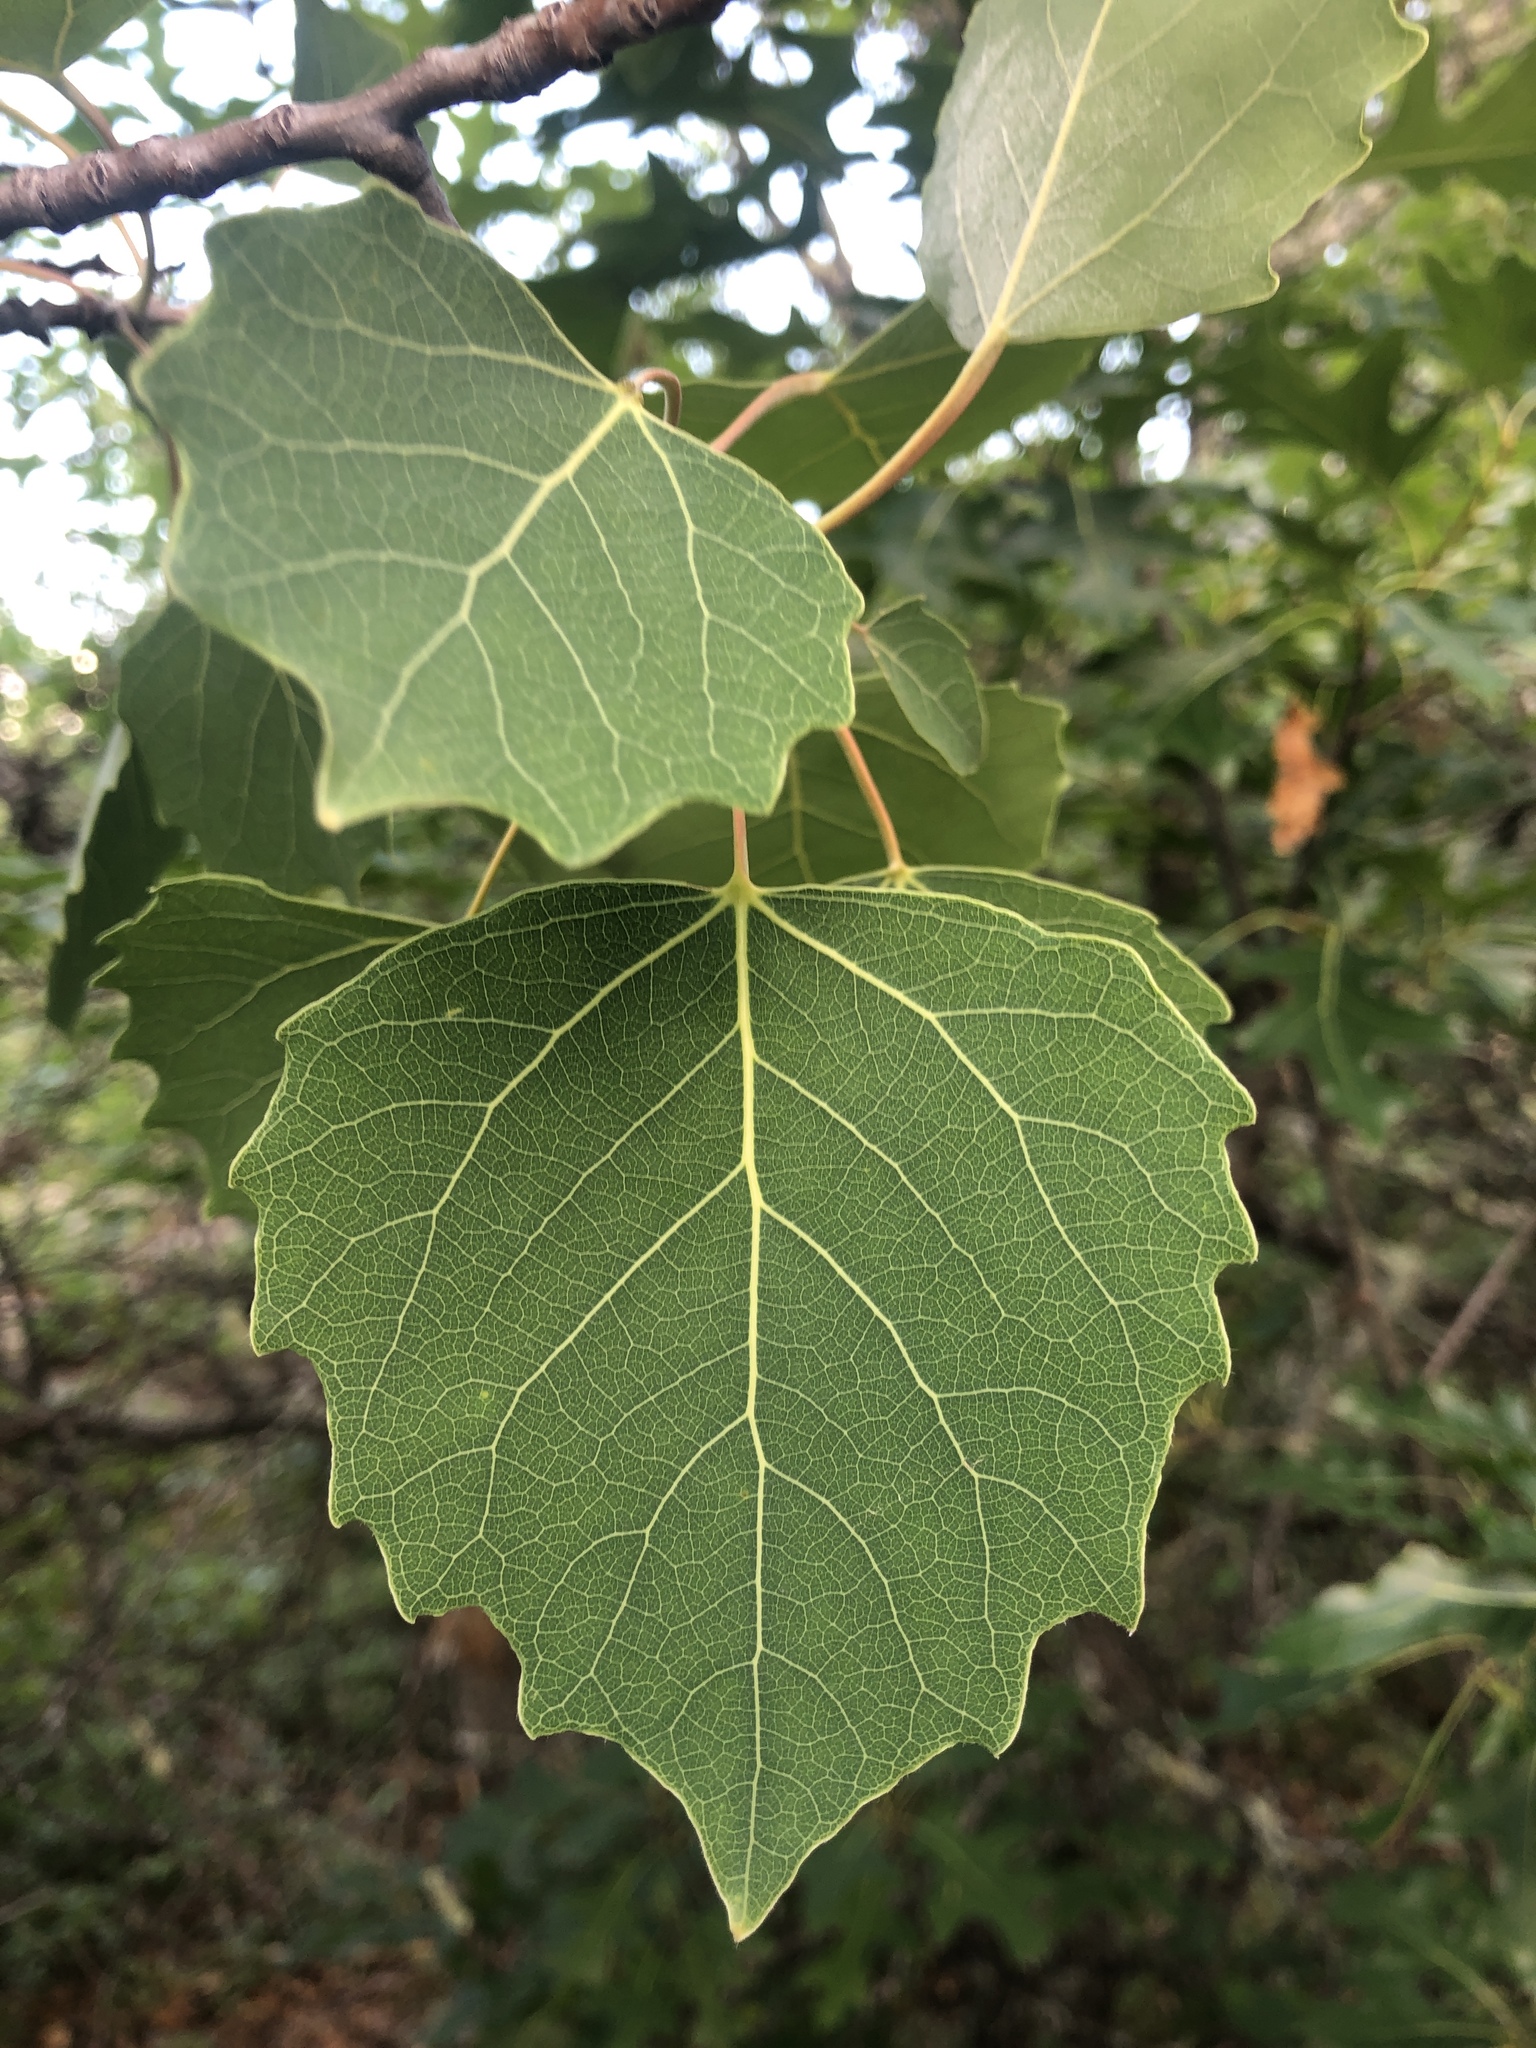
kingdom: Plantae
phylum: Tracheophyta
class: Magnoliopsida
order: Malpighiales
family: Salicaceae
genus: Populus
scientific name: Populus grandidentata
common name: Bigtooth aspen
